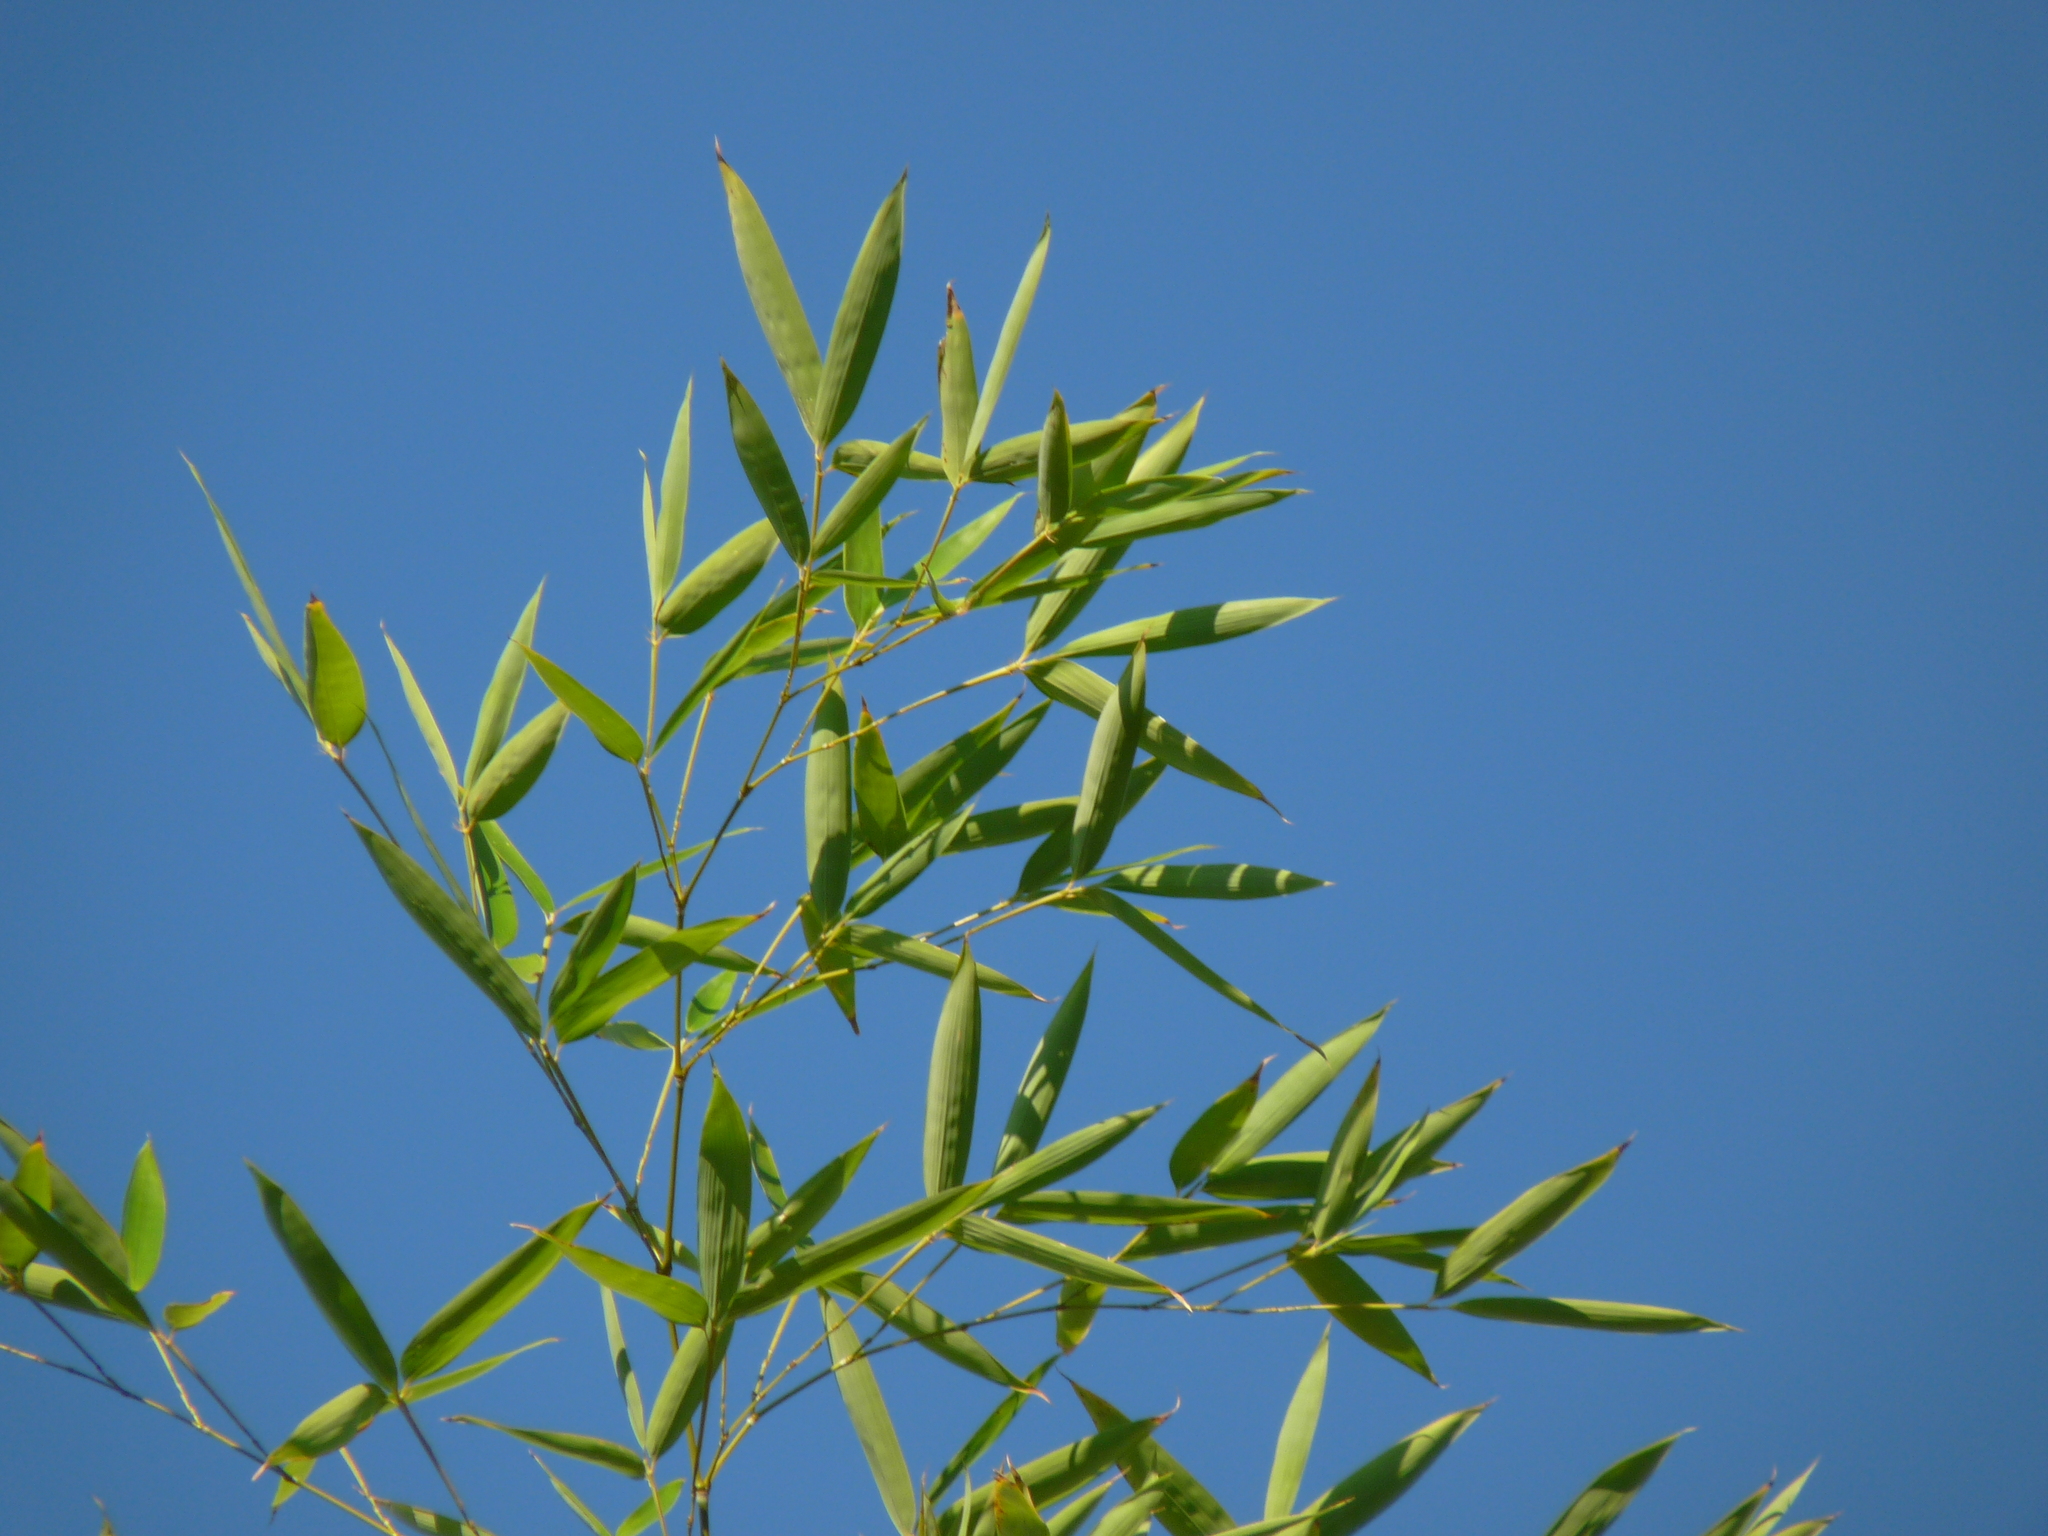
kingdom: Plantae
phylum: Tracheophyta
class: Liliopsida
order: Poales
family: Poaceae
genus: Bambusa
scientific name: Bambusa vulgaris
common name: Common bamboo
